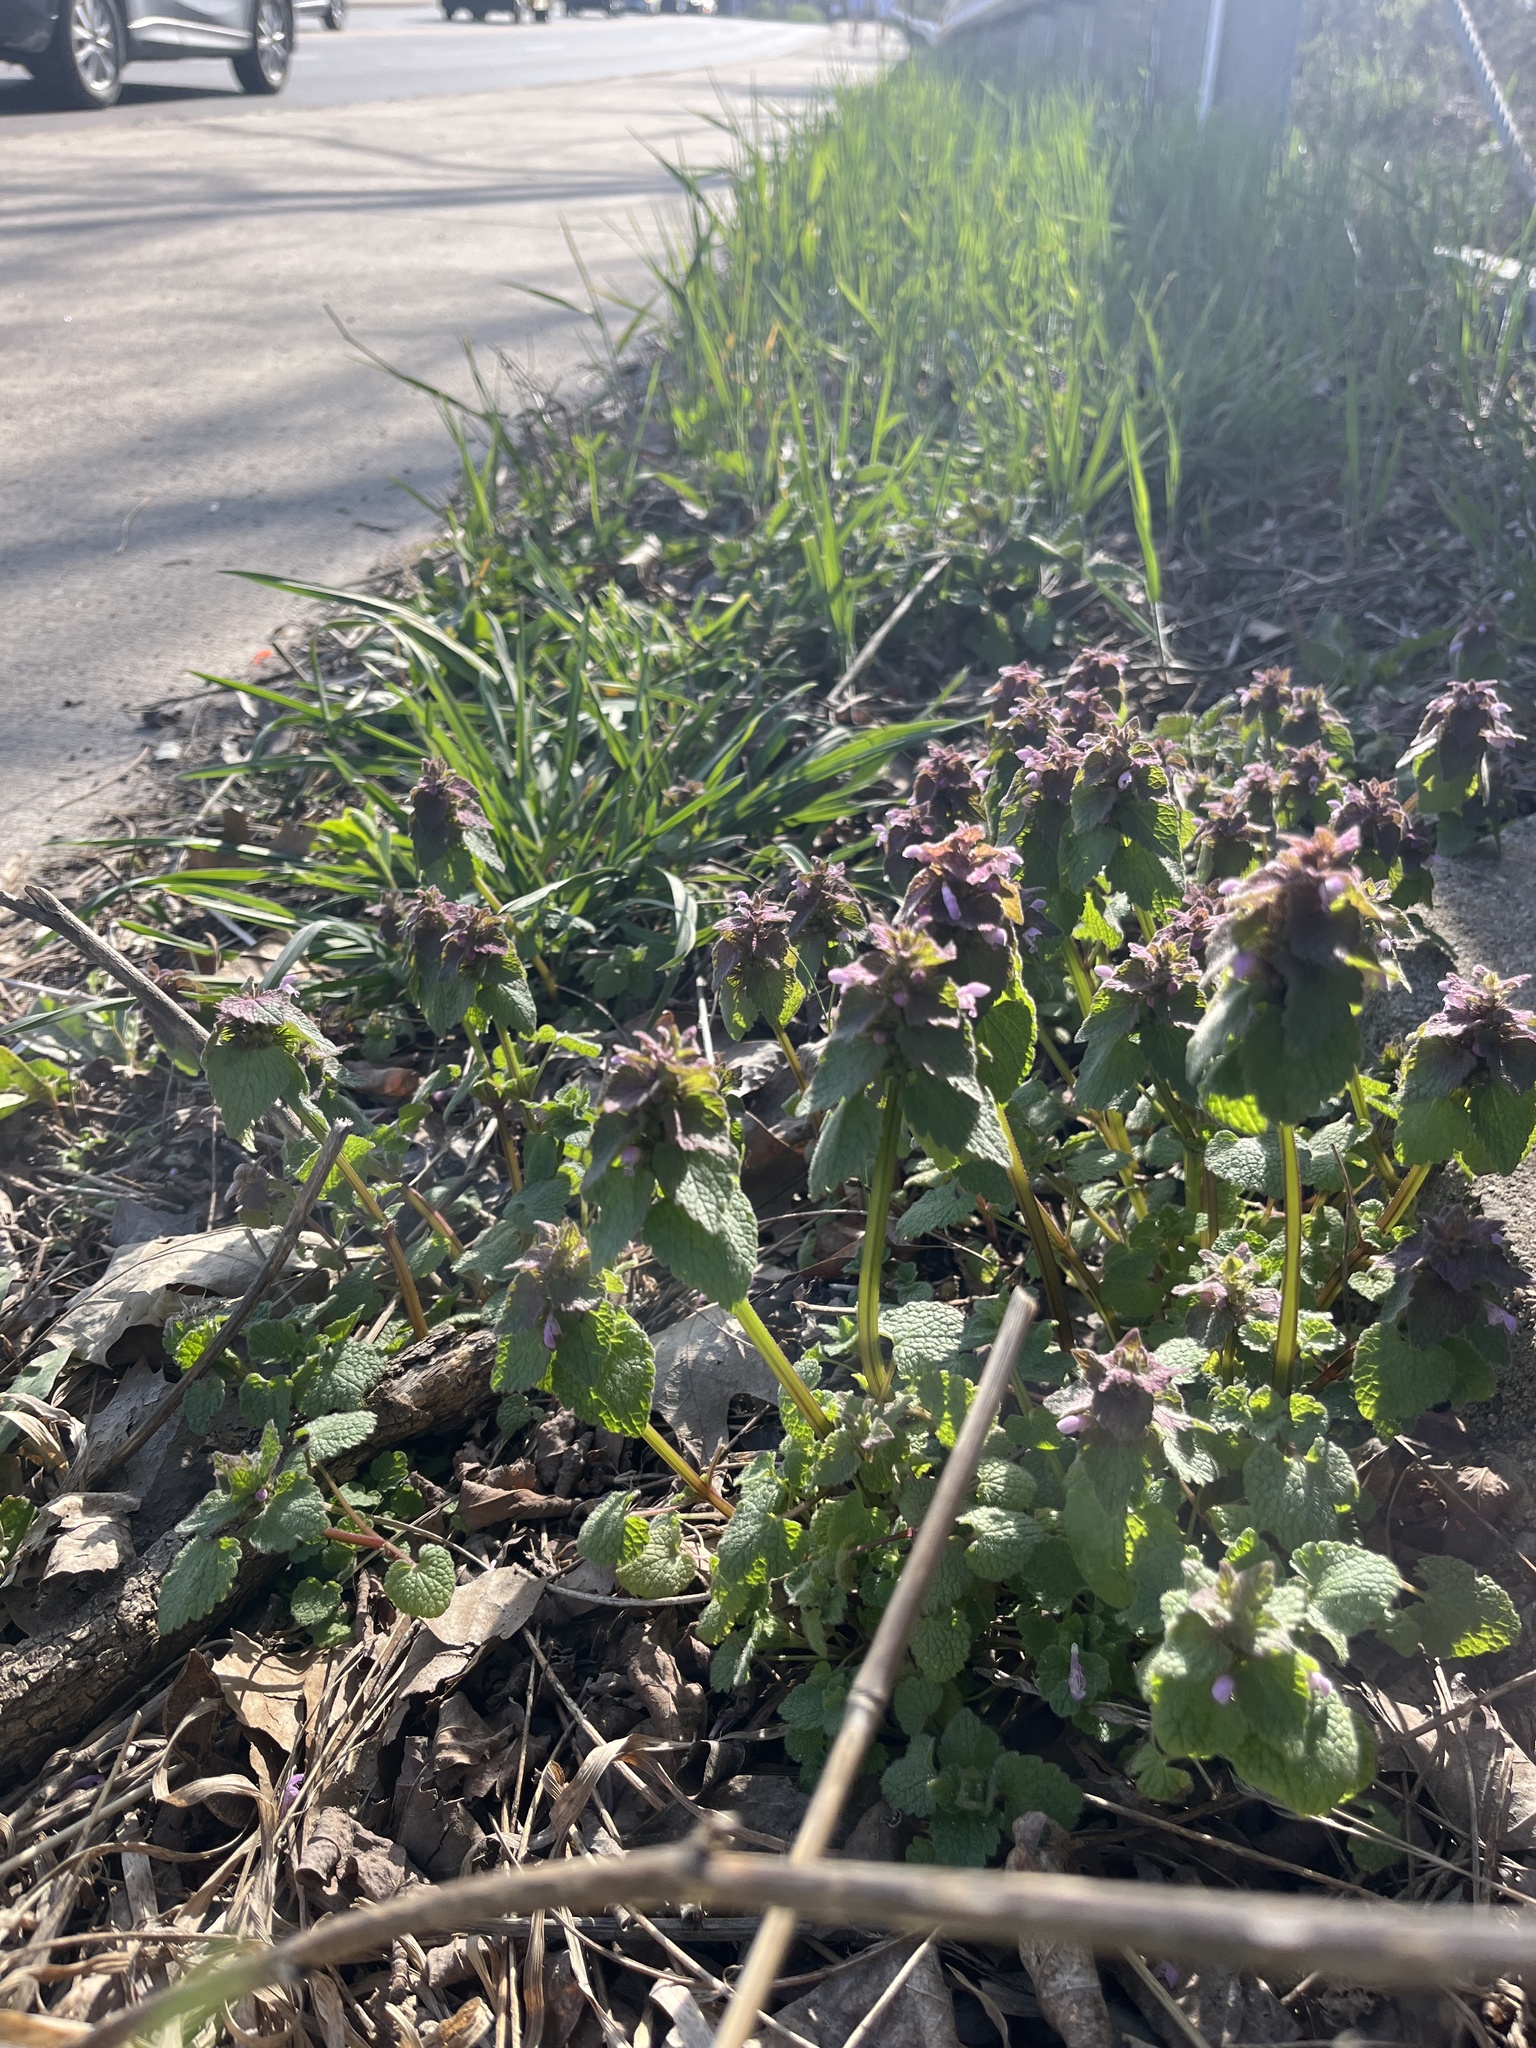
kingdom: Plantae
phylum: Tracheophyta
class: Magnoliopsida
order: Lamiales
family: Lamiaceae
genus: Lamium
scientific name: Lamium purpureum
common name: Red dead-nettle
